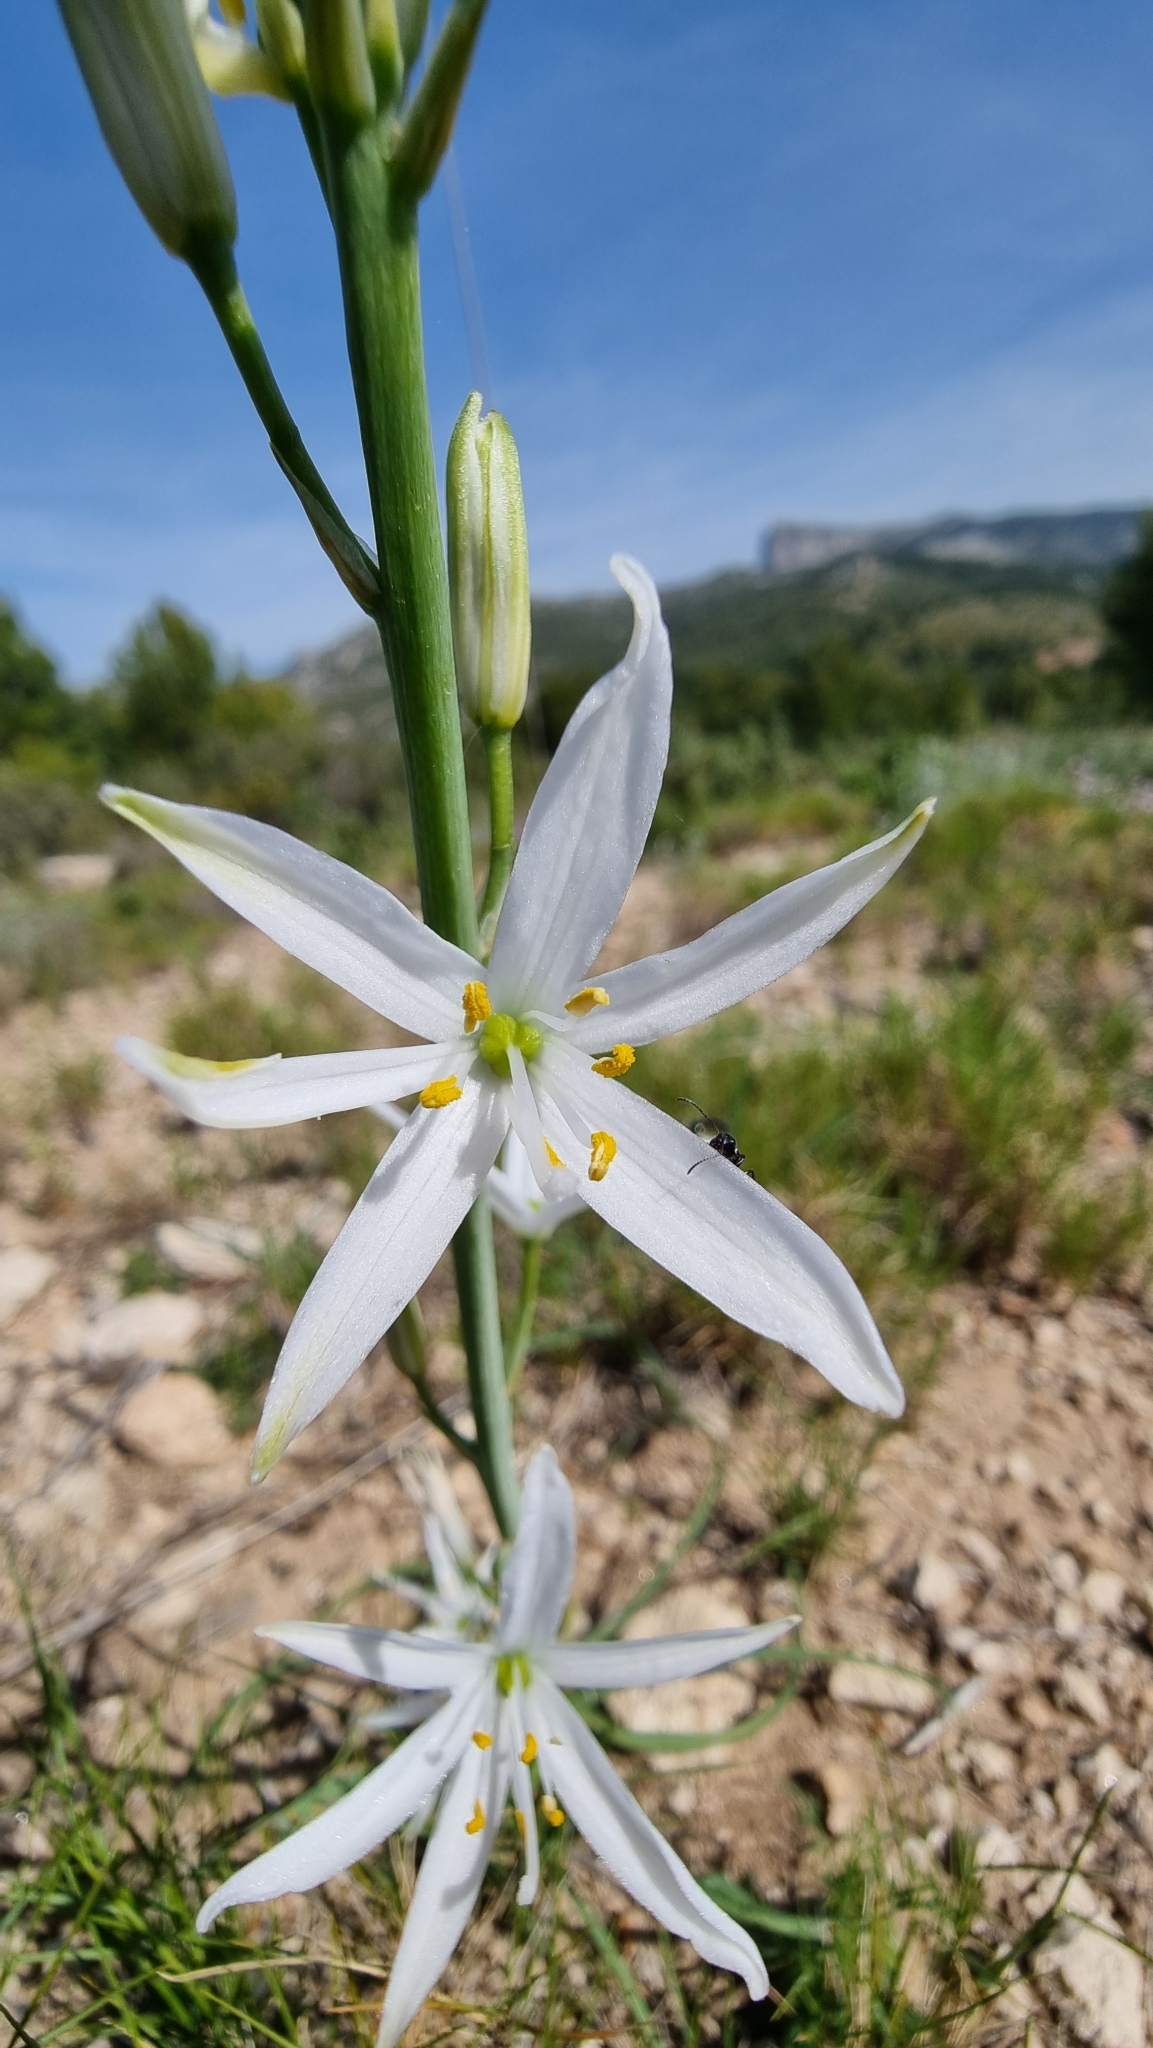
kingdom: Plantae
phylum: Tracheophyta
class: Liliopsida
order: Asparagales
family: Asparagaceae
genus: Anthericum
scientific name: Anthericum liliago
